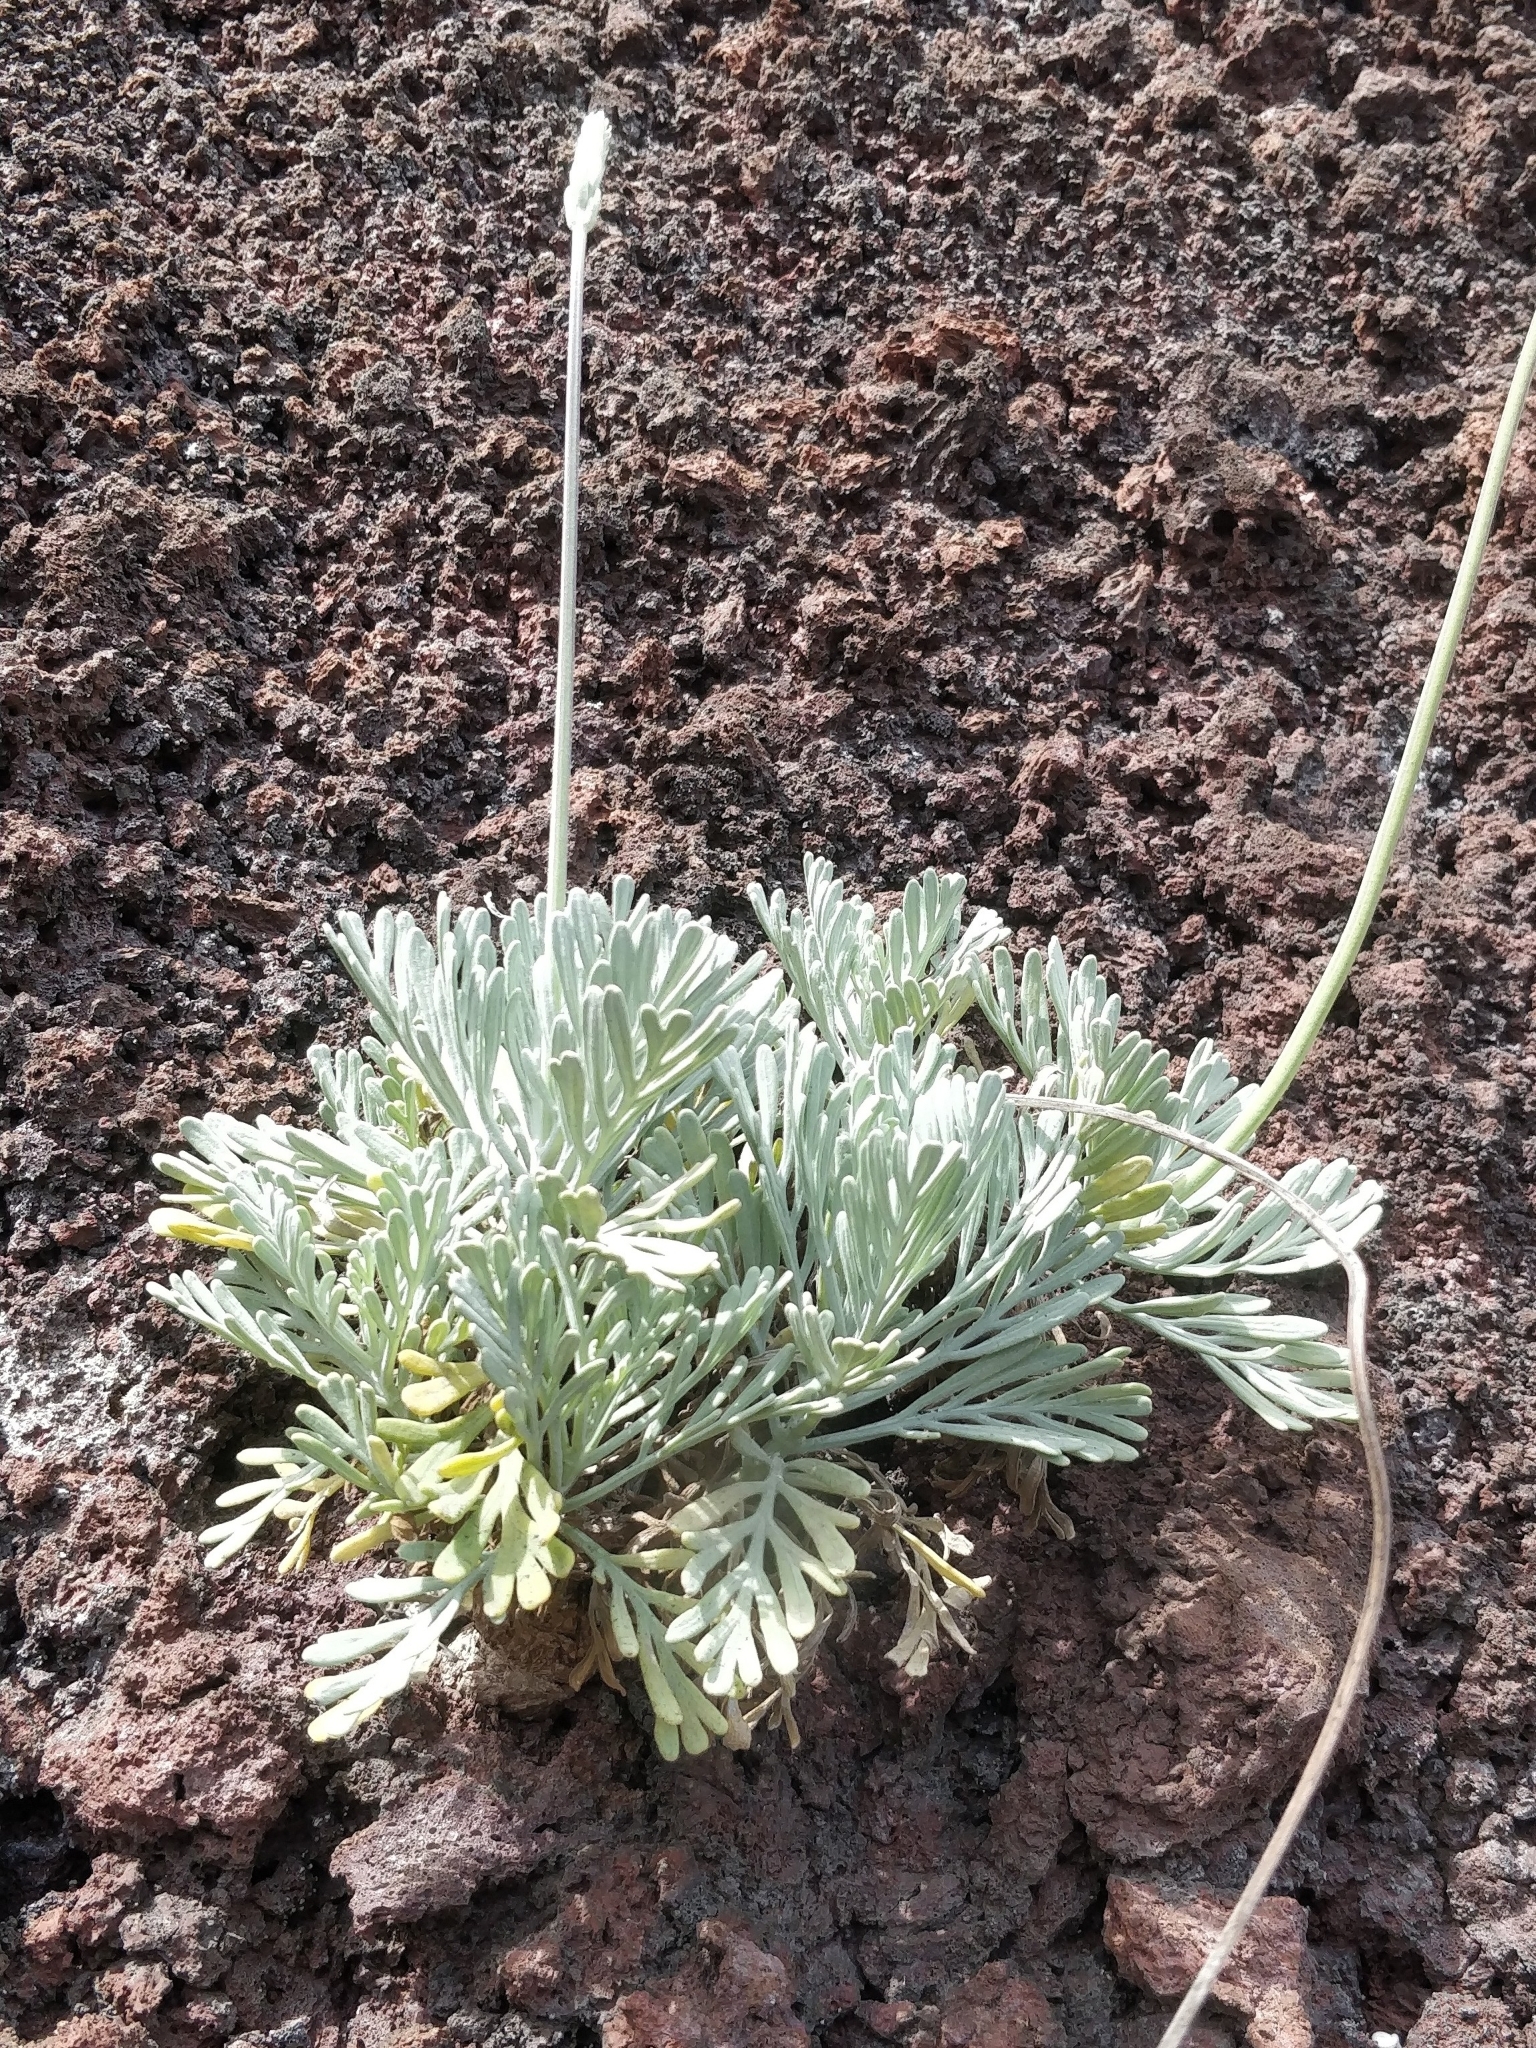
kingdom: Plantae
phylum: Tracheophyta
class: Magnoliopsida
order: Lamiales
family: Lamiaceae
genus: Lavandula
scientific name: Lavandula pinnata
